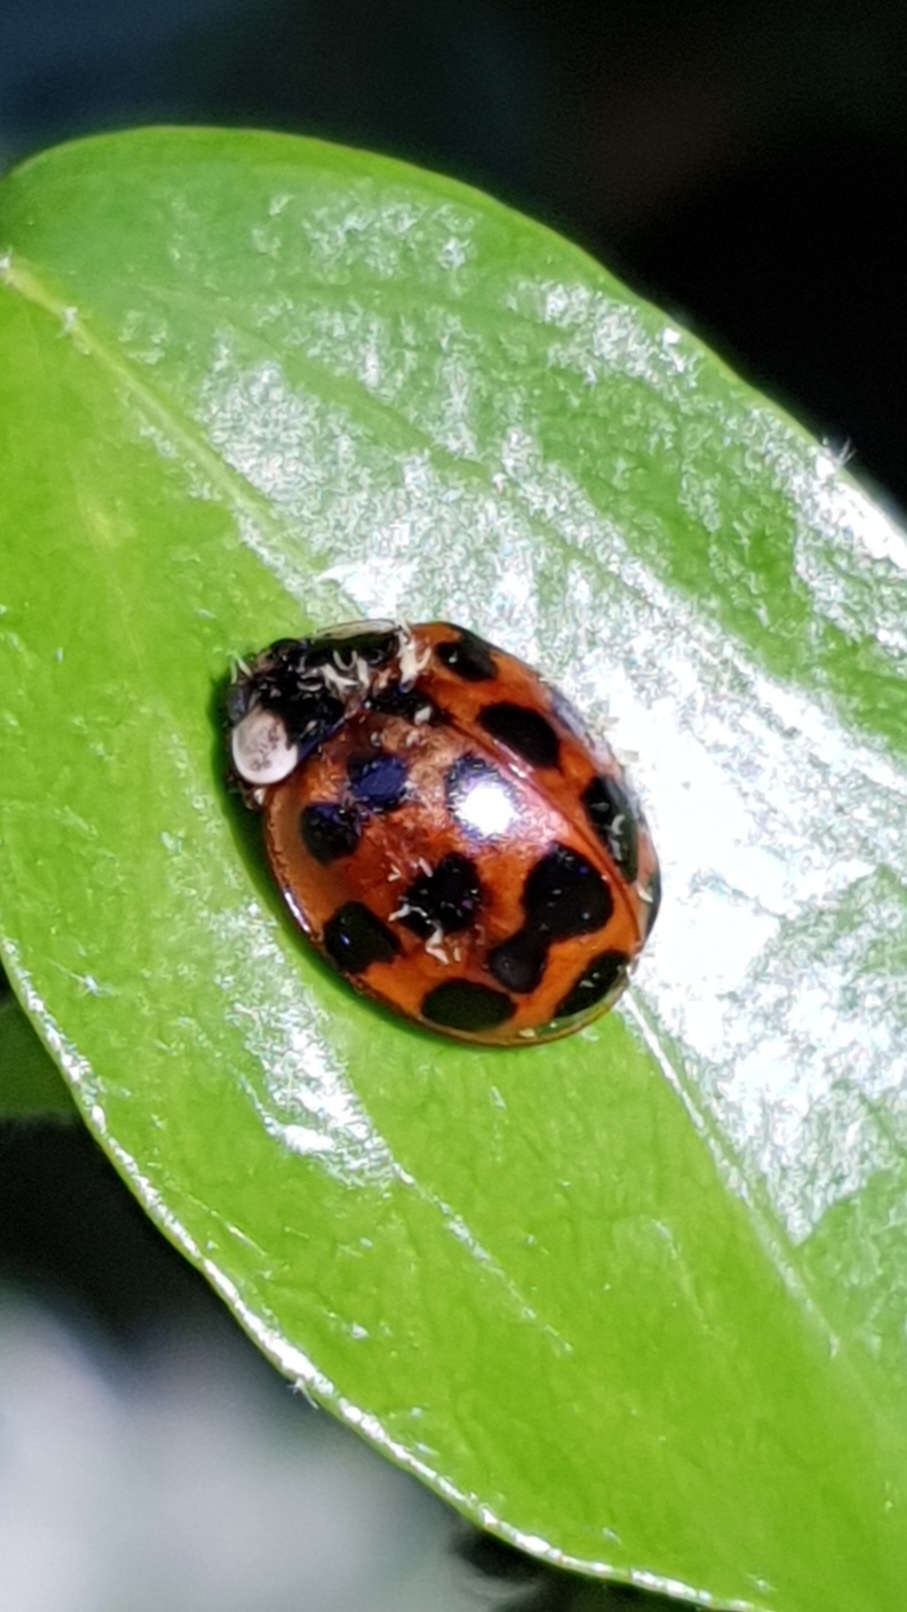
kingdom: Animalia
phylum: Arthropoda
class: Insecta
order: Coleoptera
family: Coccinellidae
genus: Harmonia
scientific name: Harmonia axyridis
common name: Harlequin ladybird
